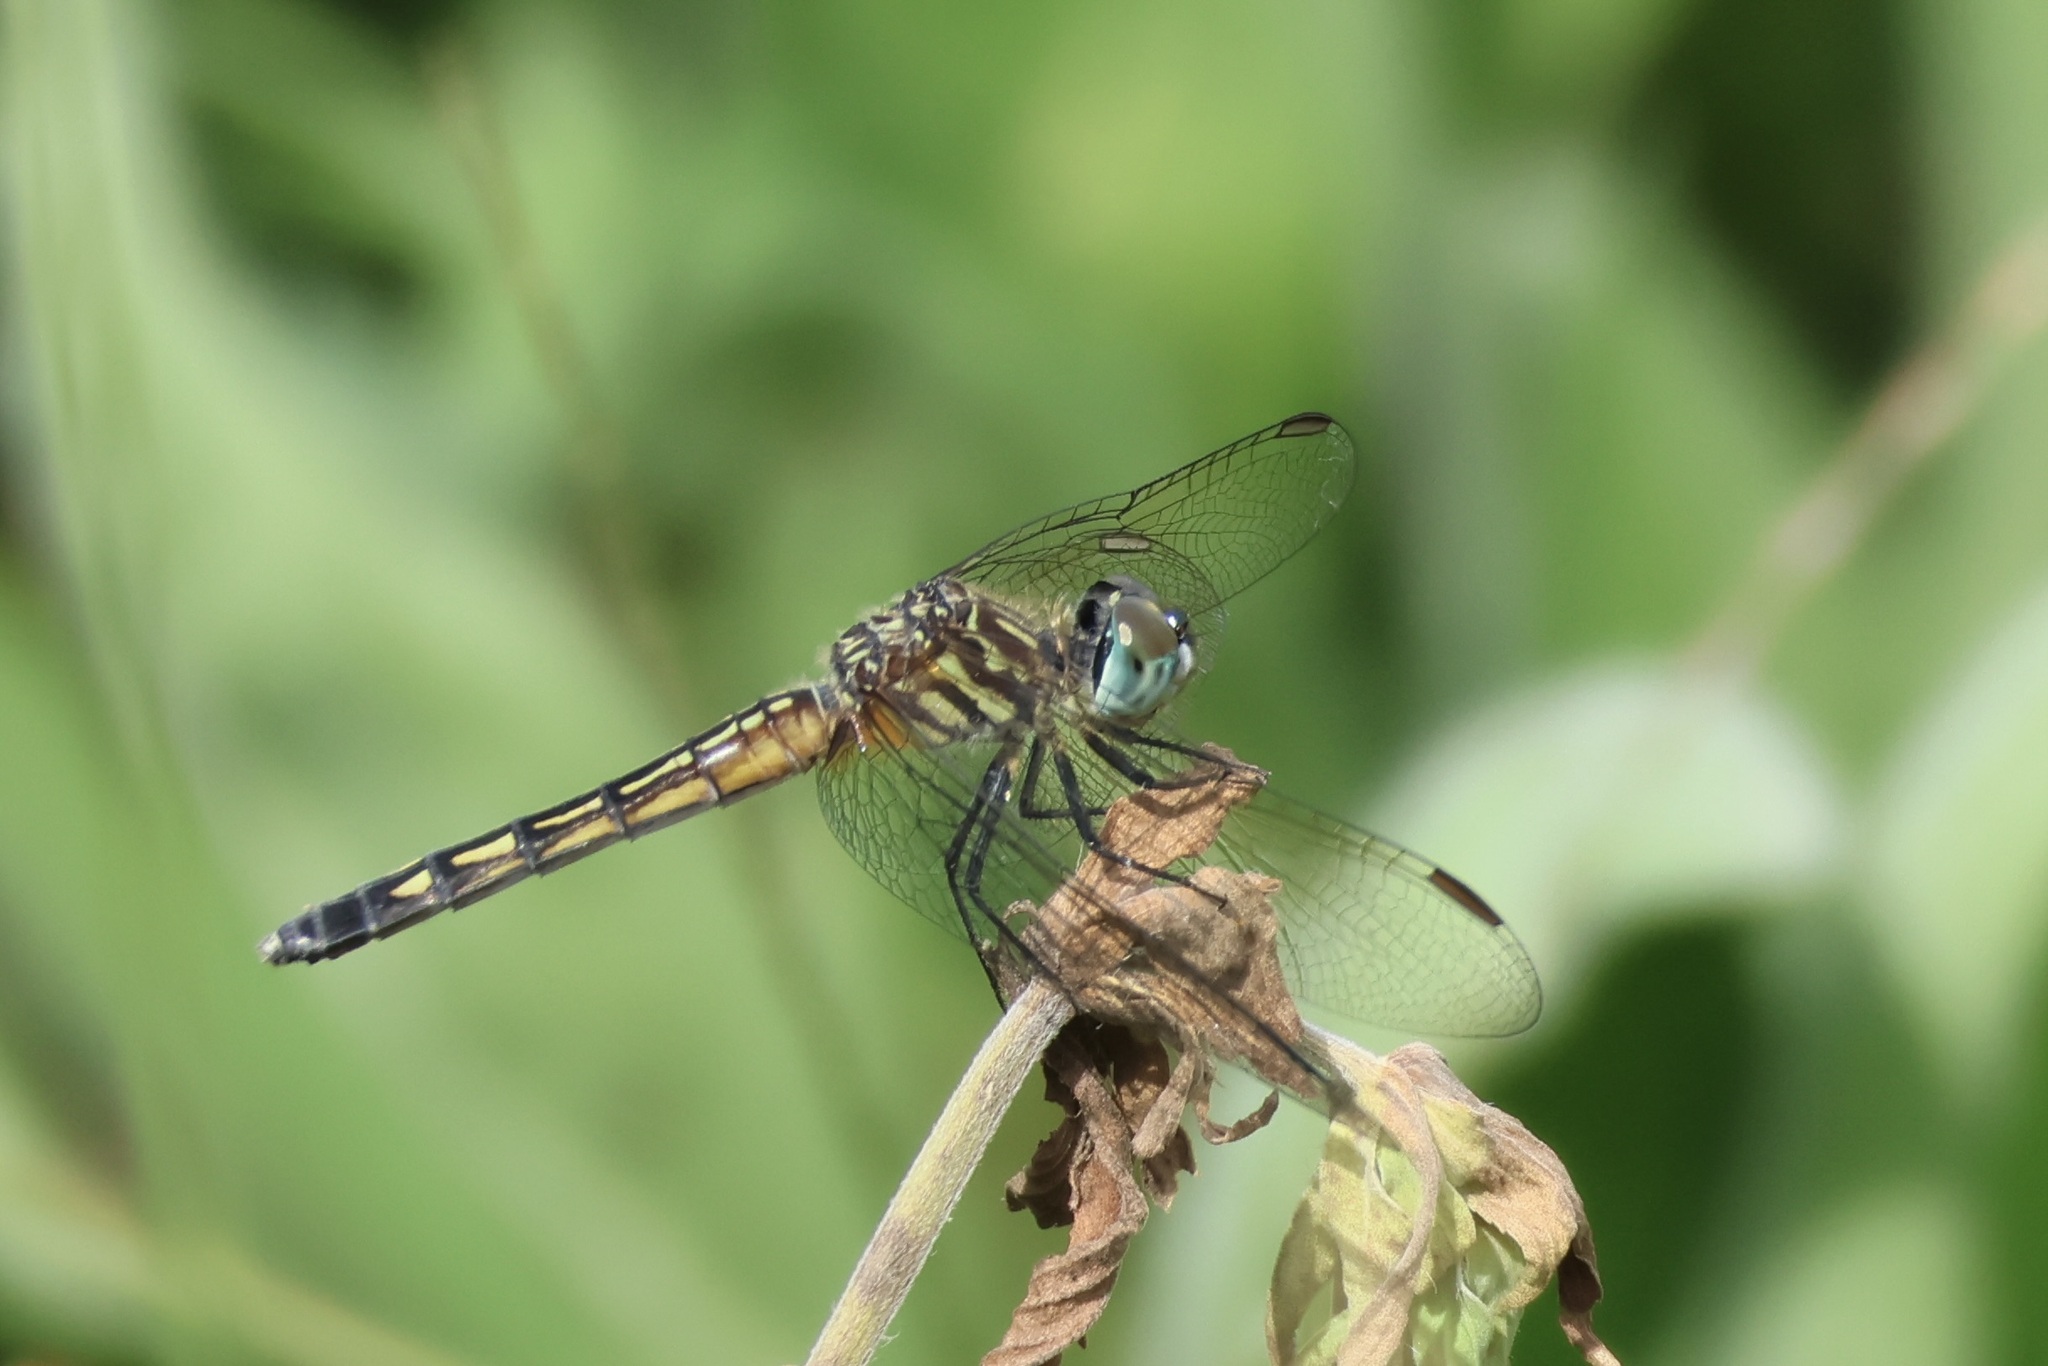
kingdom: Animalia
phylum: Arthropoda
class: Insecta
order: Odonata
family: Libellulidae
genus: Pachydiplax
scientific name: Pachydiplax longipennis
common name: Blue dasher
